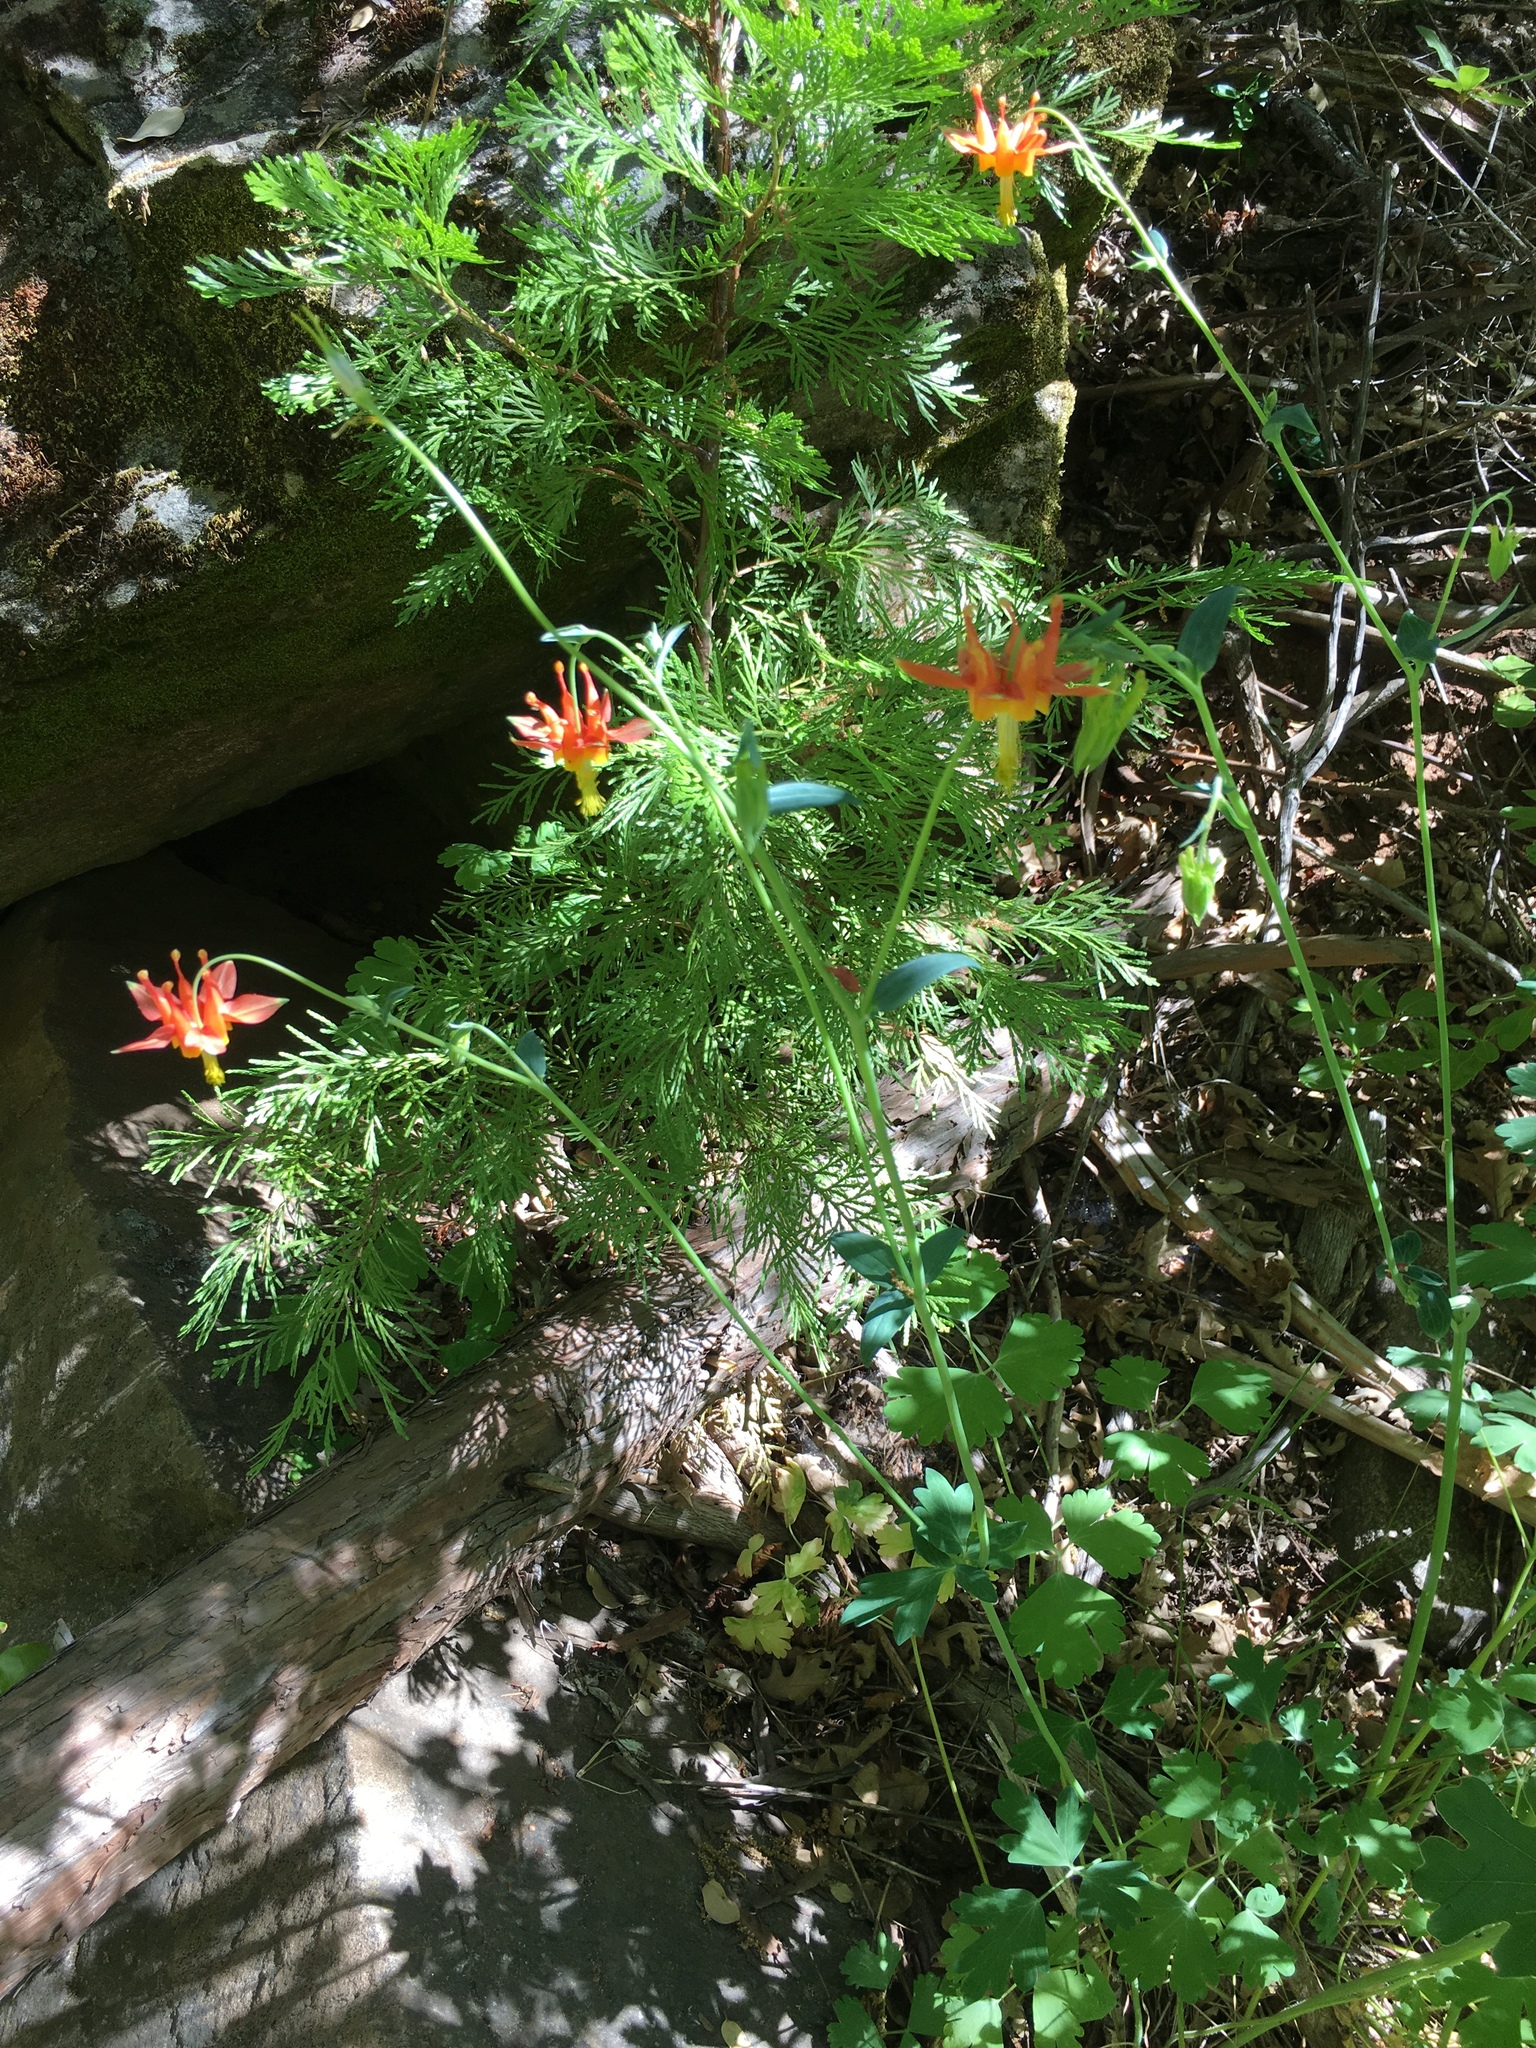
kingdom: Plantae
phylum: Tracheophyta
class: Magnoliopsida
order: Ranunculales
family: Ranunculaceae
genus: Aquilegia
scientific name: Aquilegia formosa
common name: Sitka columbine
